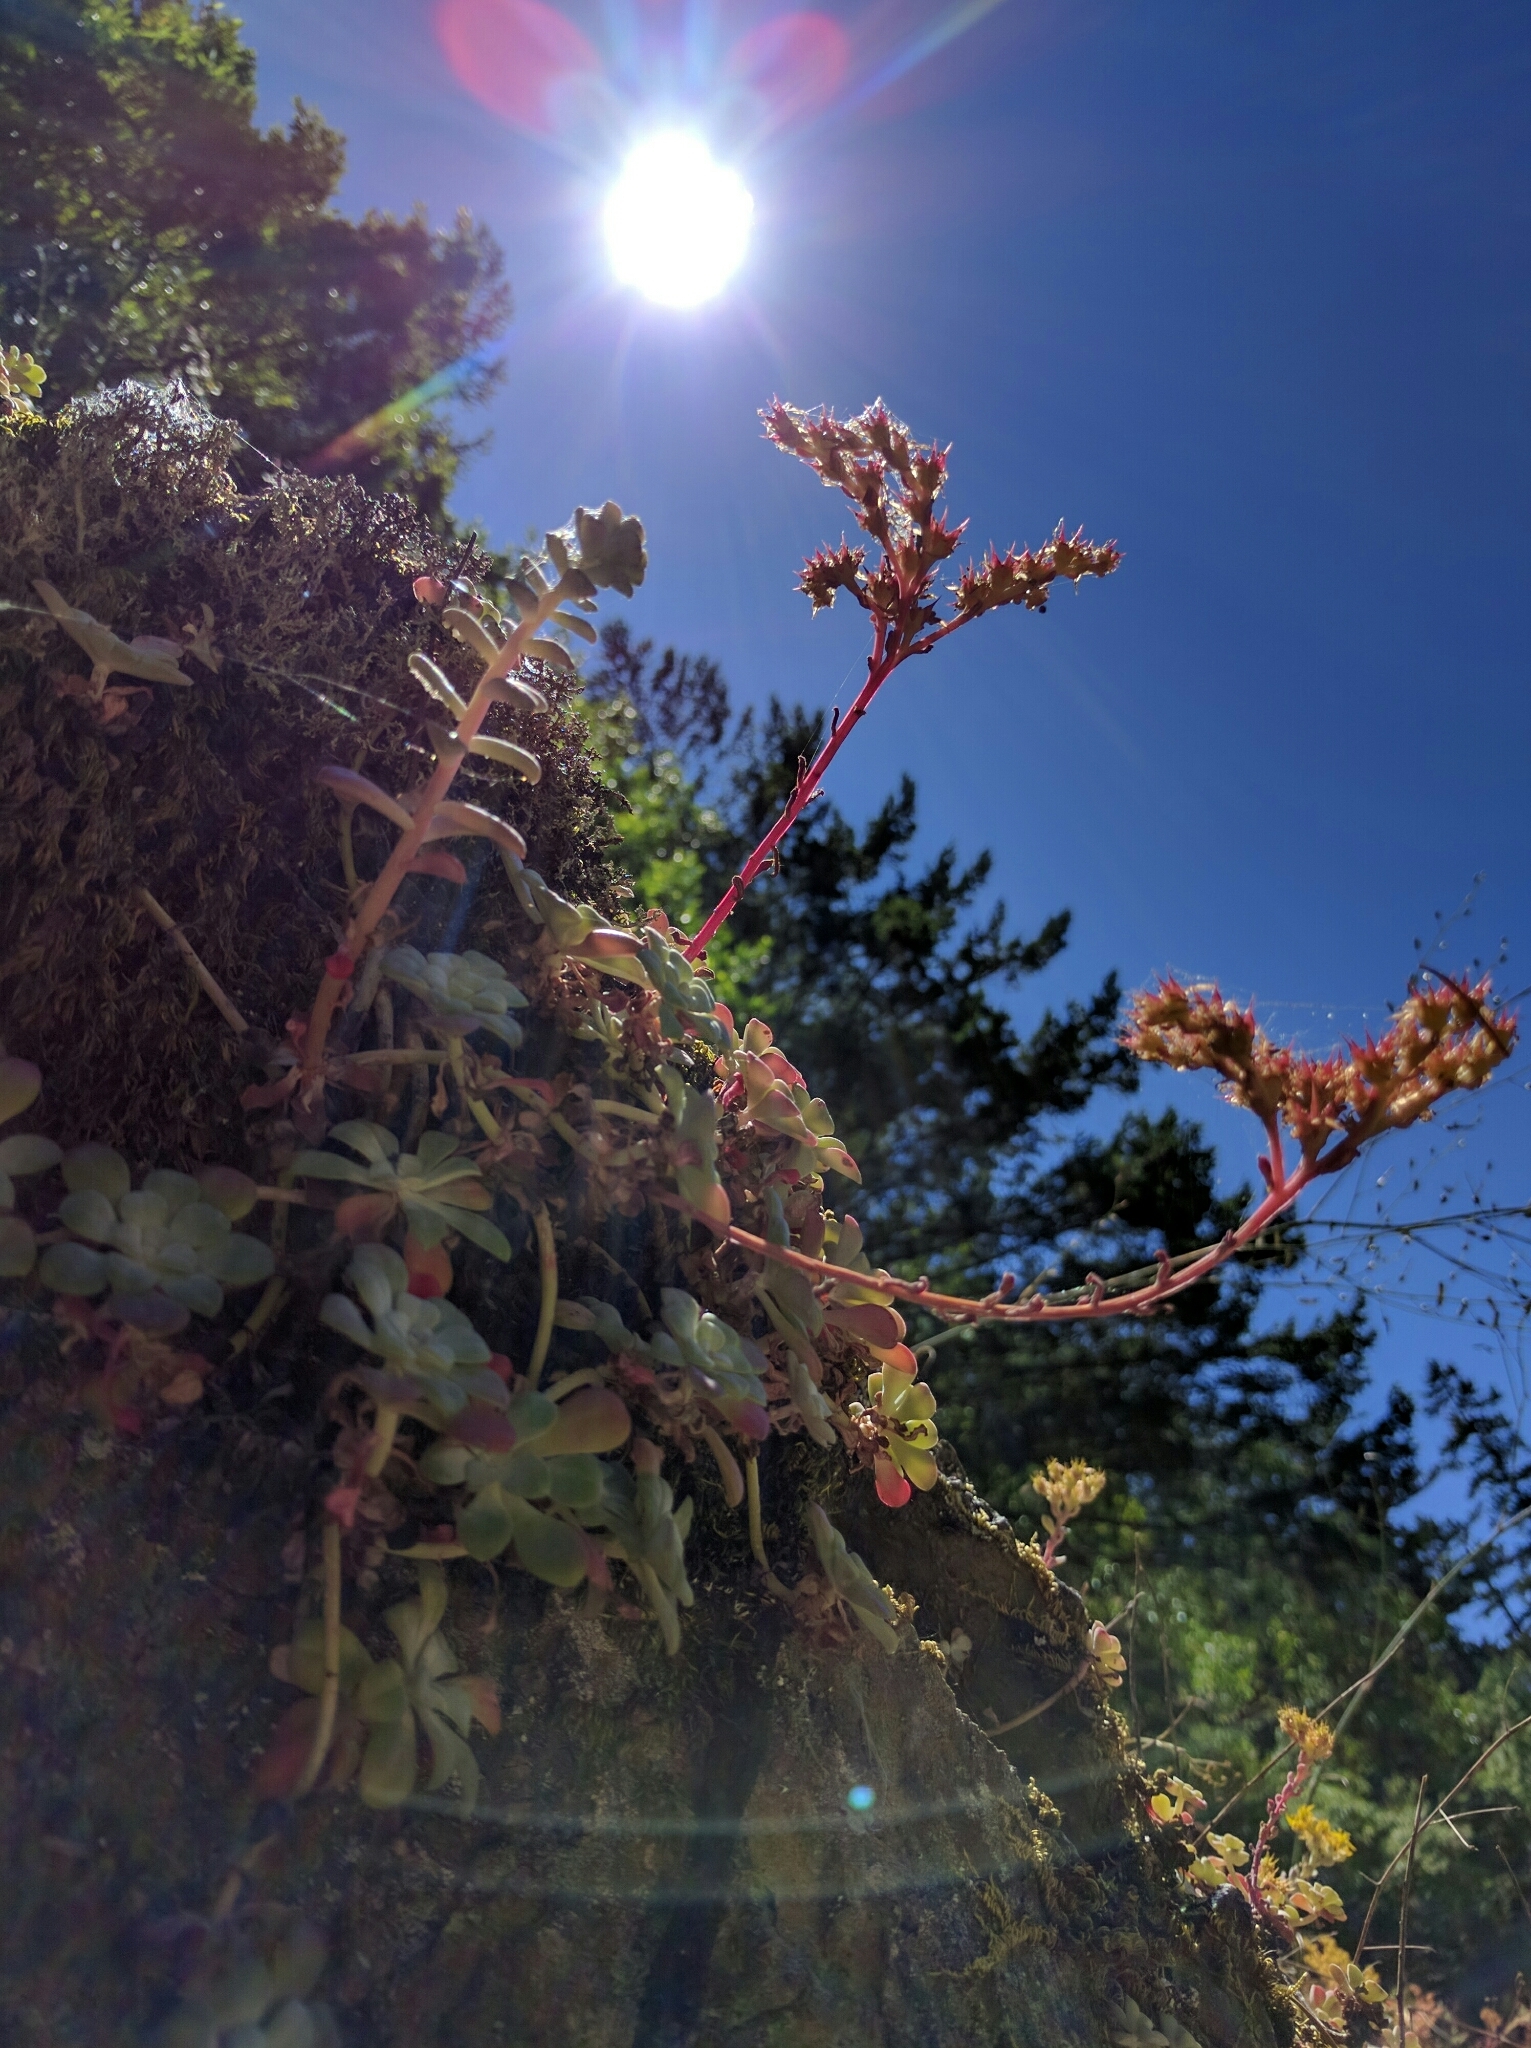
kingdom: Plantae
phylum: Tracheophyta
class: Magnoliopsida
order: Saxifragales
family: Crassulaceae
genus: Sedum
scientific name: Sedum spathulifolium
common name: Colorado stonecrop
